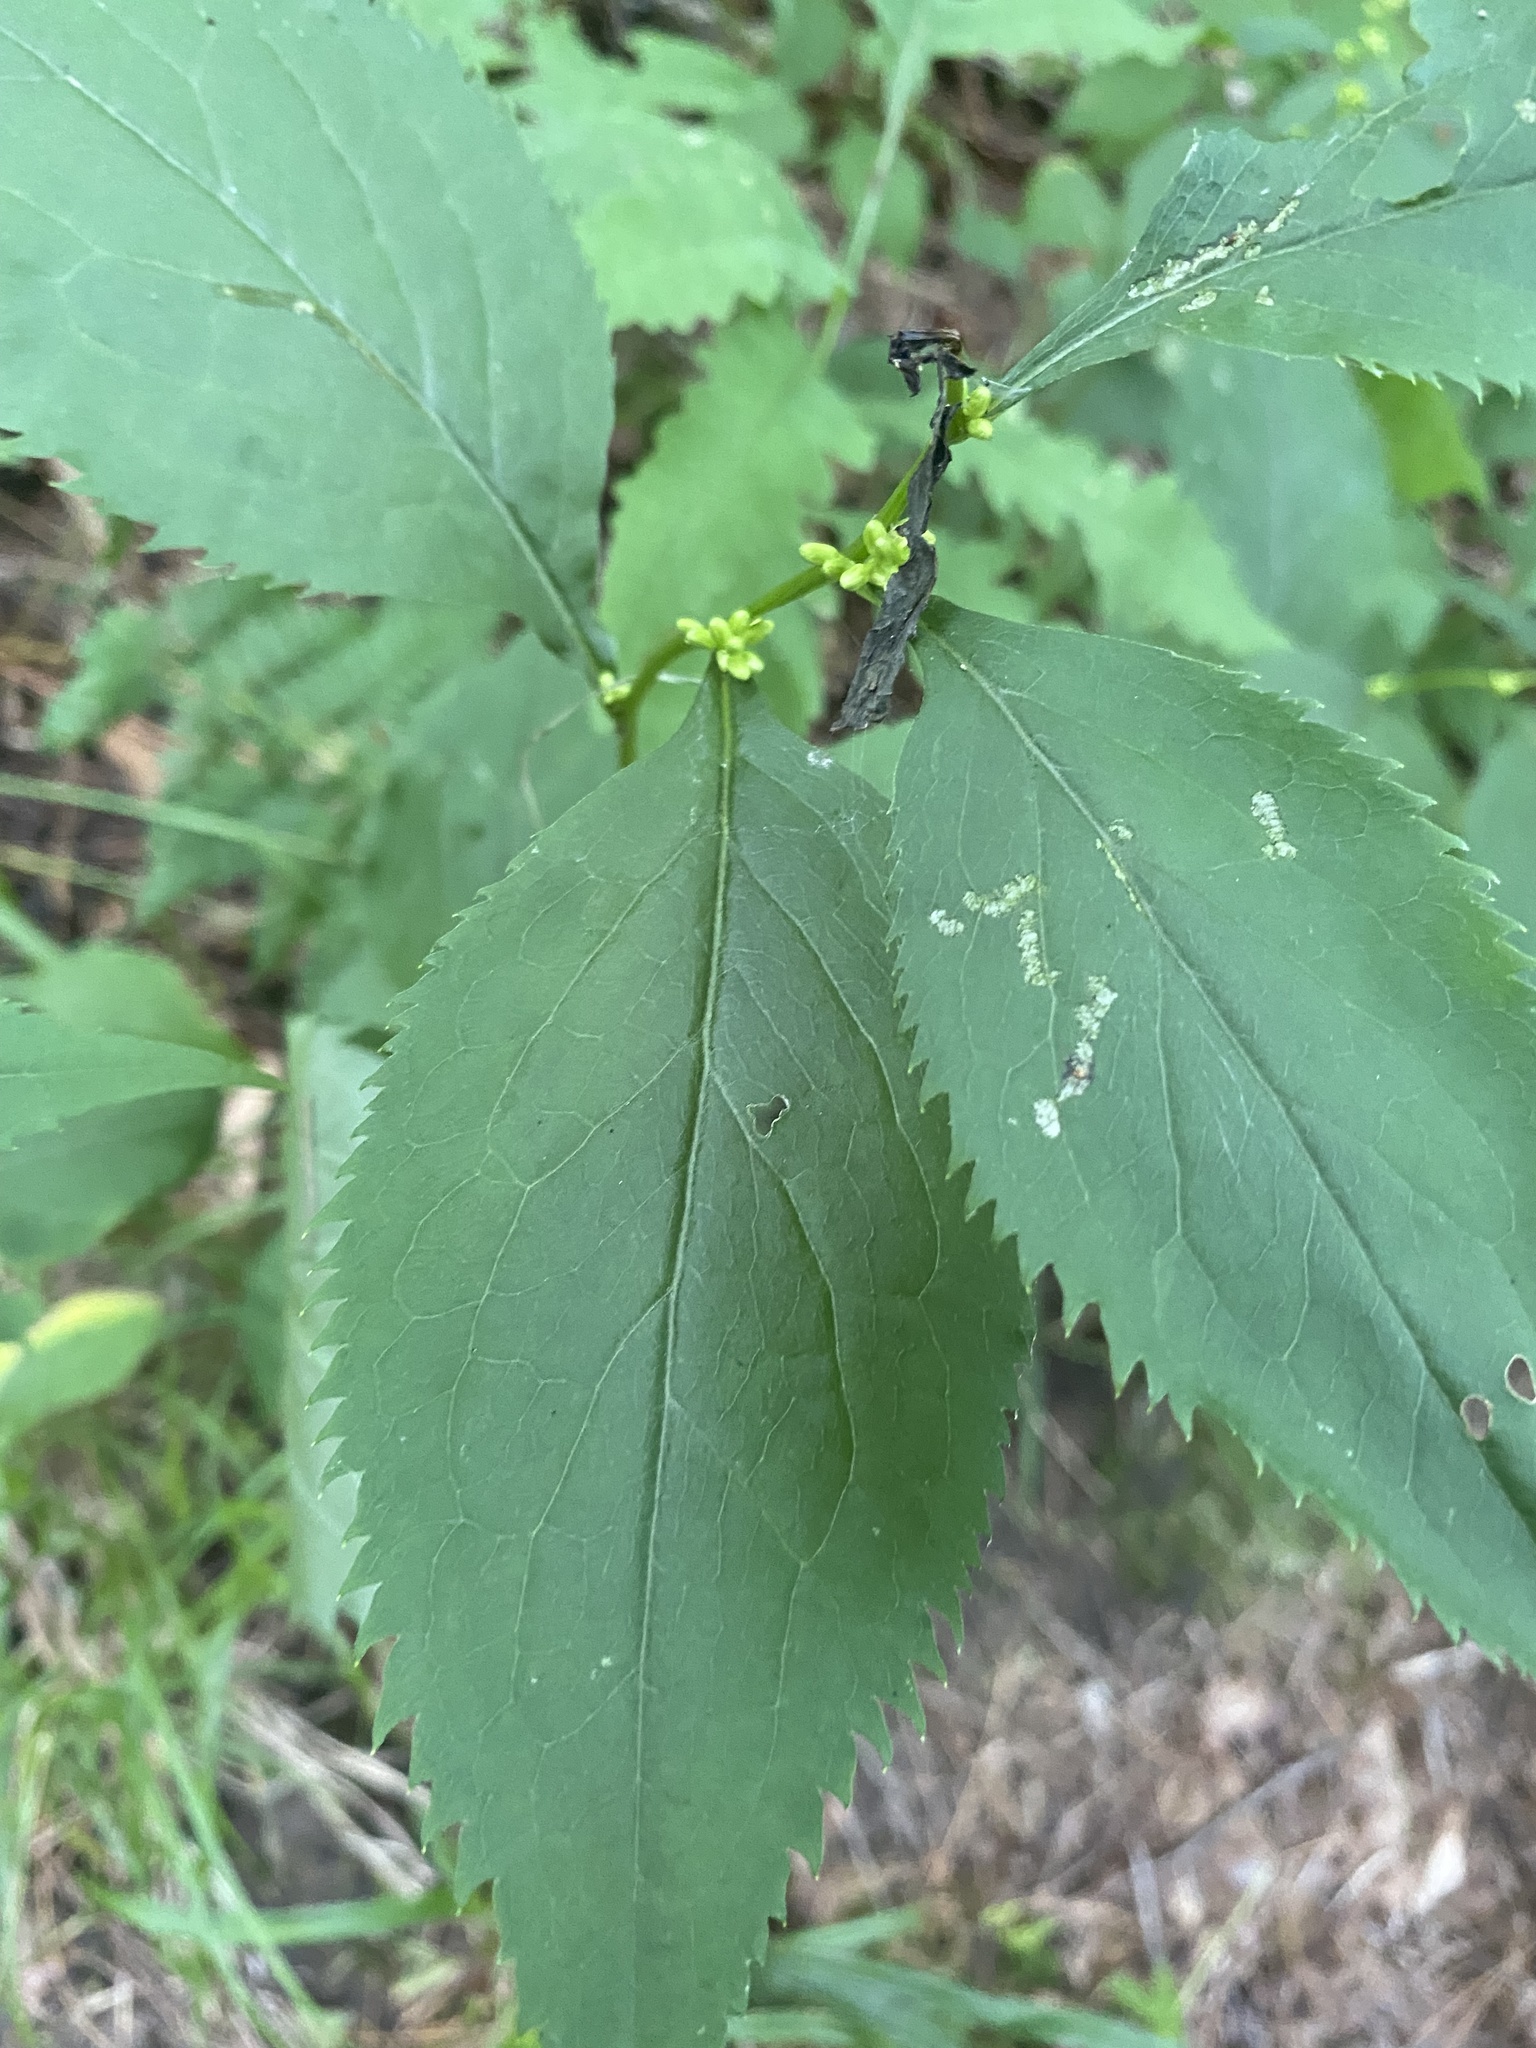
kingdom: Plantae
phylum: Tracheophyta
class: Magnoliopsida
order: Asterales
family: Asteraceae
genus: Solidago
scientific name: Solidago flexicaulis
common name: Zig-zag goldenrod
